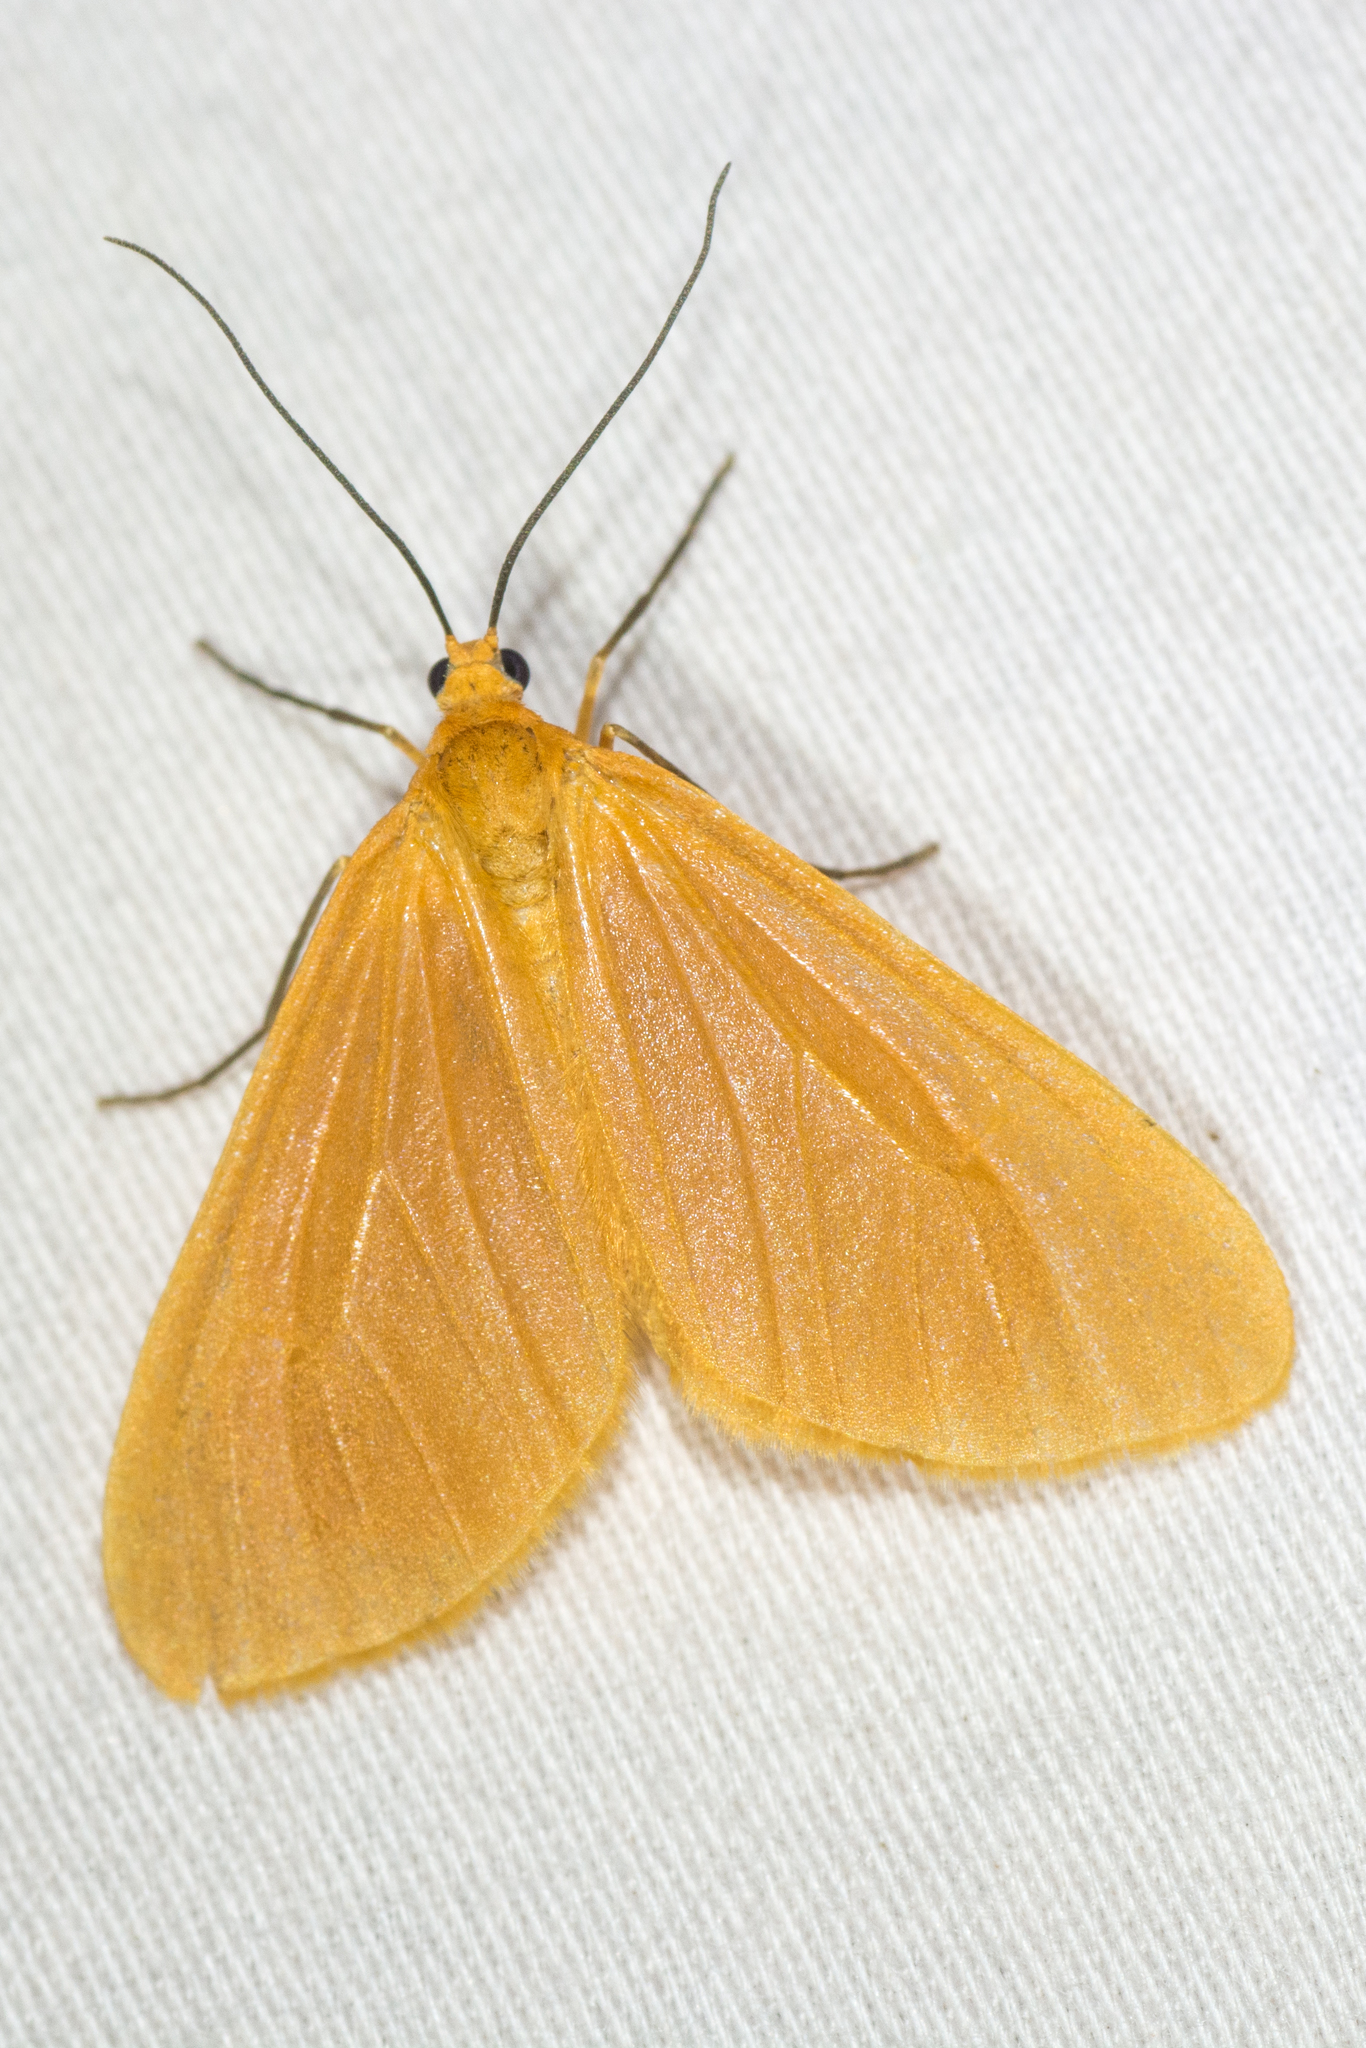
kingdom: Animalia
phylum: Arthropoda
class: Insecta
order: Lepidoptera
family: Geometridae
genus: Eubaphe
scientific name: Eubaphe unicolor
